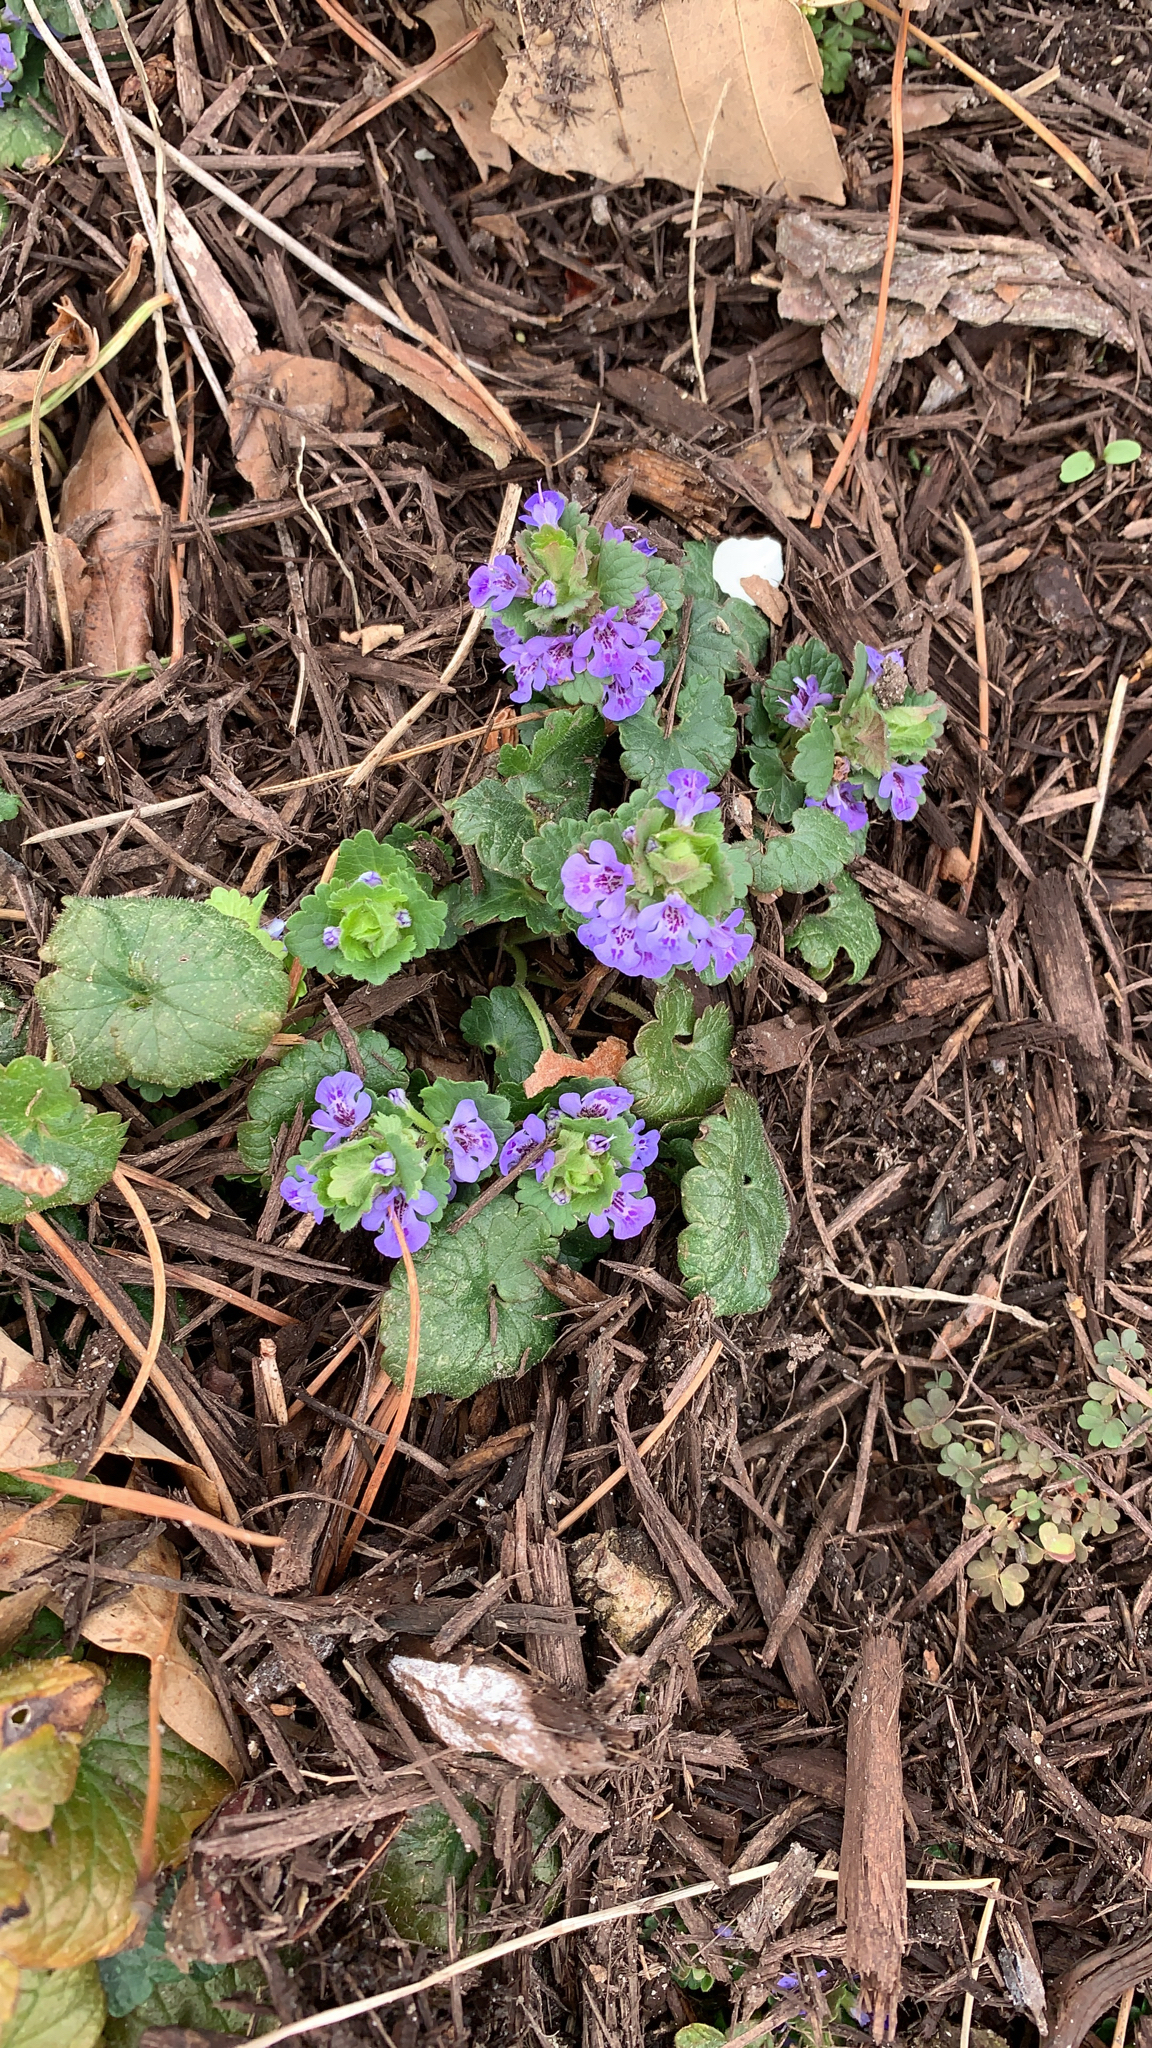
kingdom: Plantae
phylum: Tracheophyta
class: Magnoliopsida
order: Lamiales
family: Lamiaceae
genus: Glechoma
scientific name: Glechoma hederacea
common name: Ground ivy
